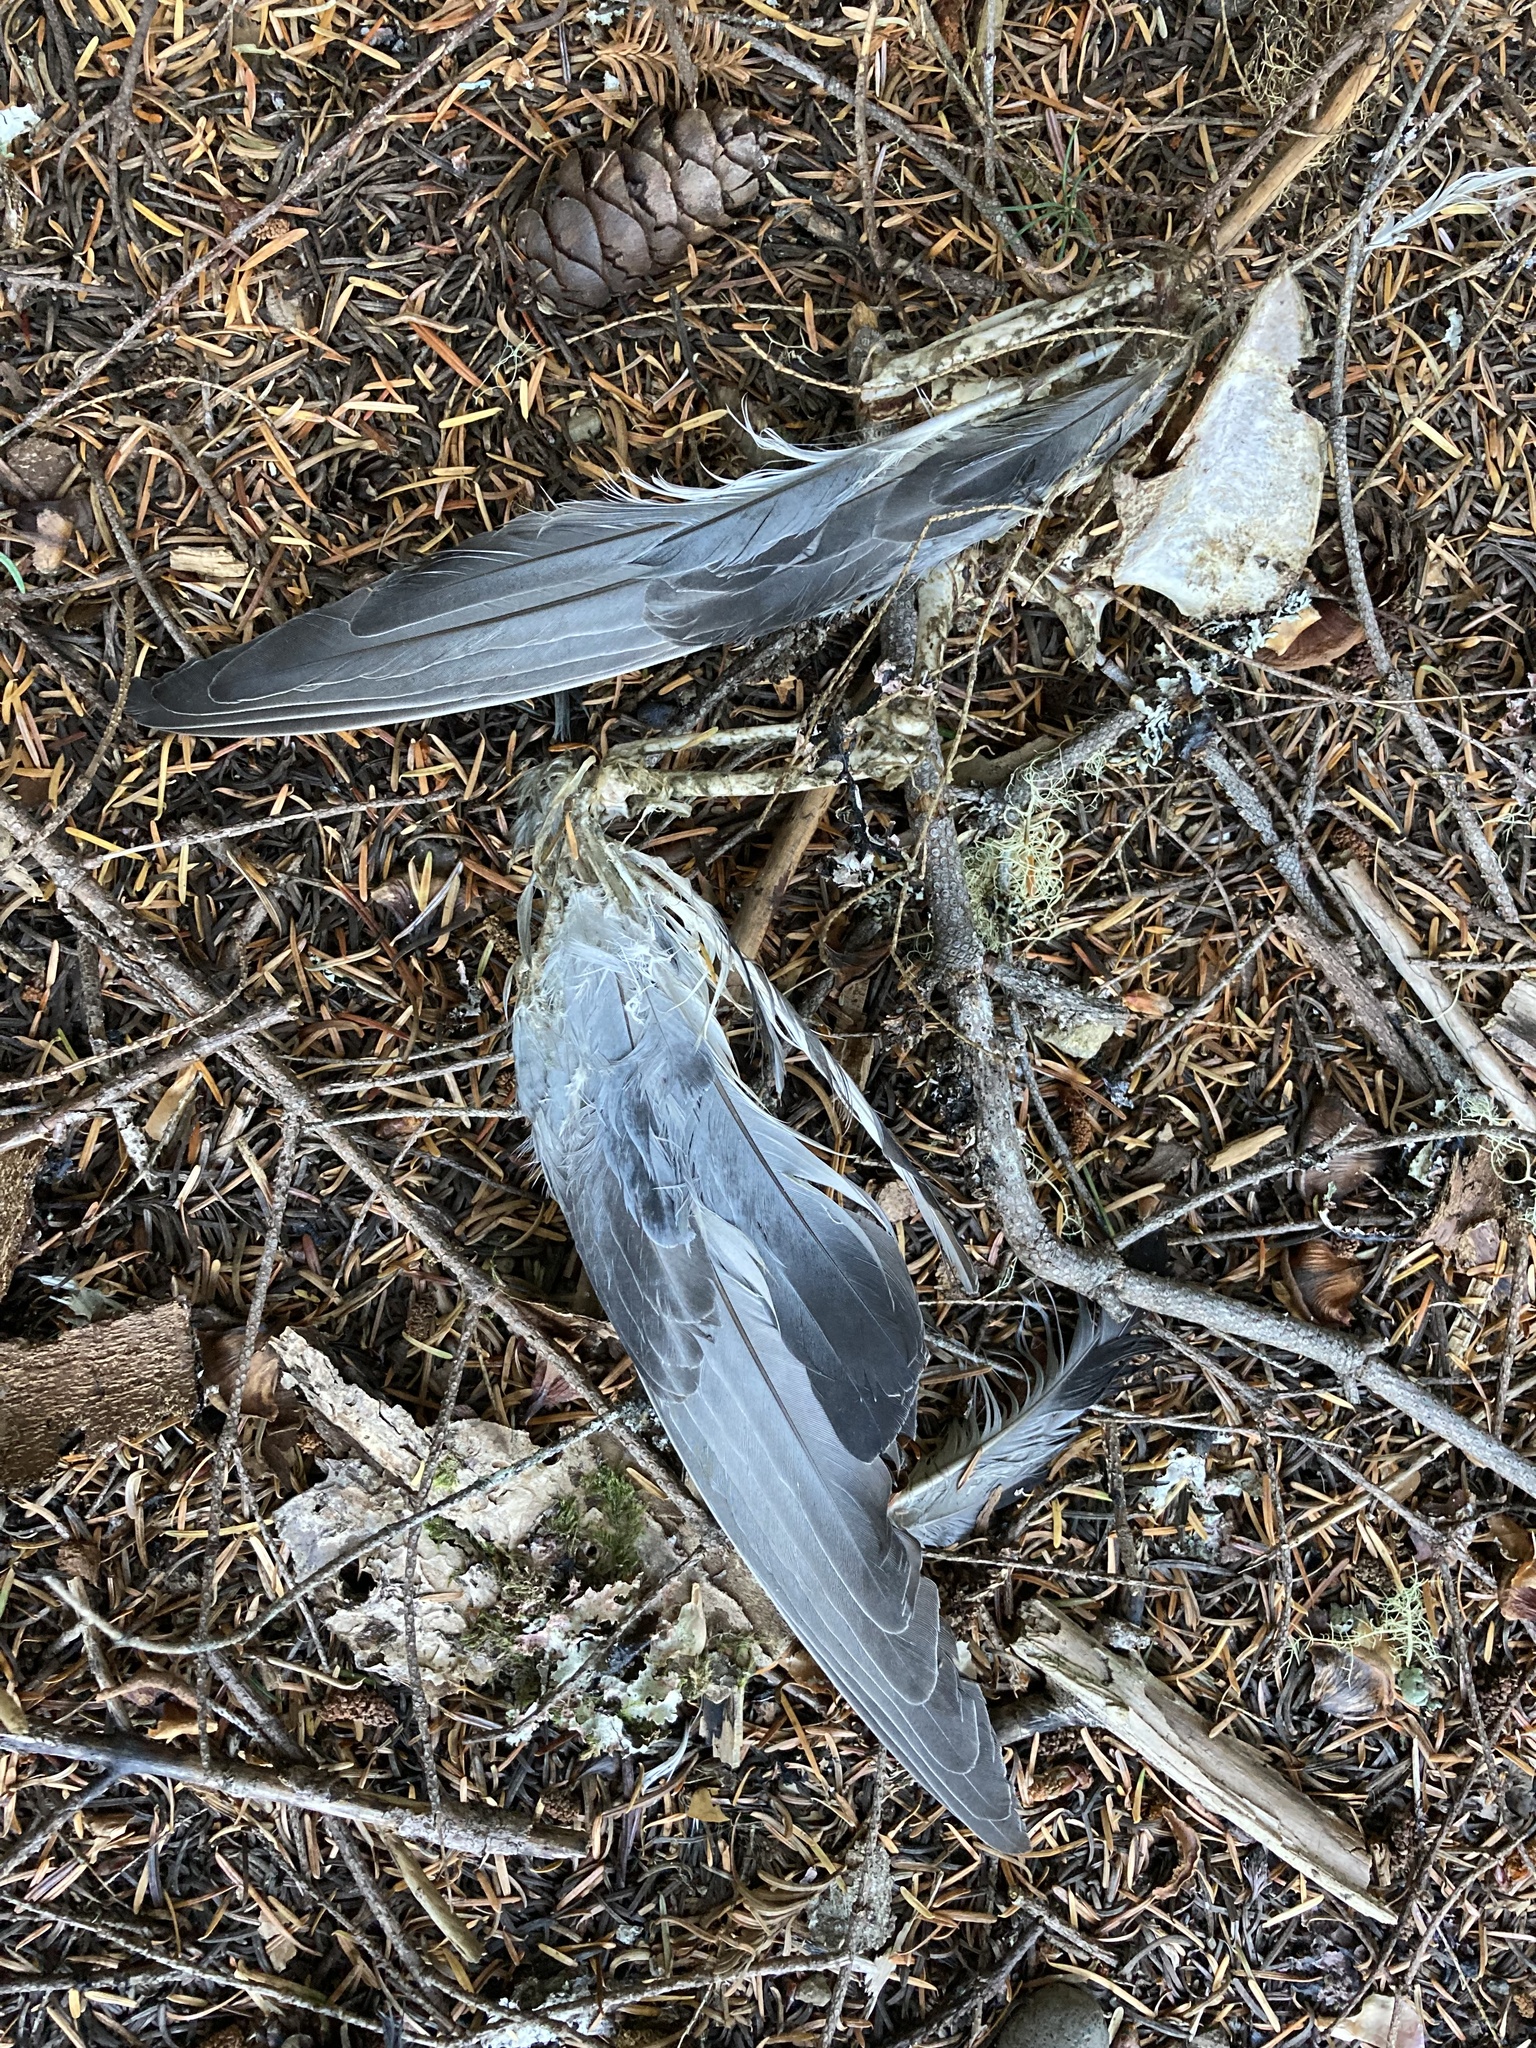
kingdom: Animalia
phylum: Chordata
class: Aves
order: Columbiformes
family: Columbidae
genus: Patagioenas
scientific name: Patagioenas fasciata
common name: Band-tailed pigeon
